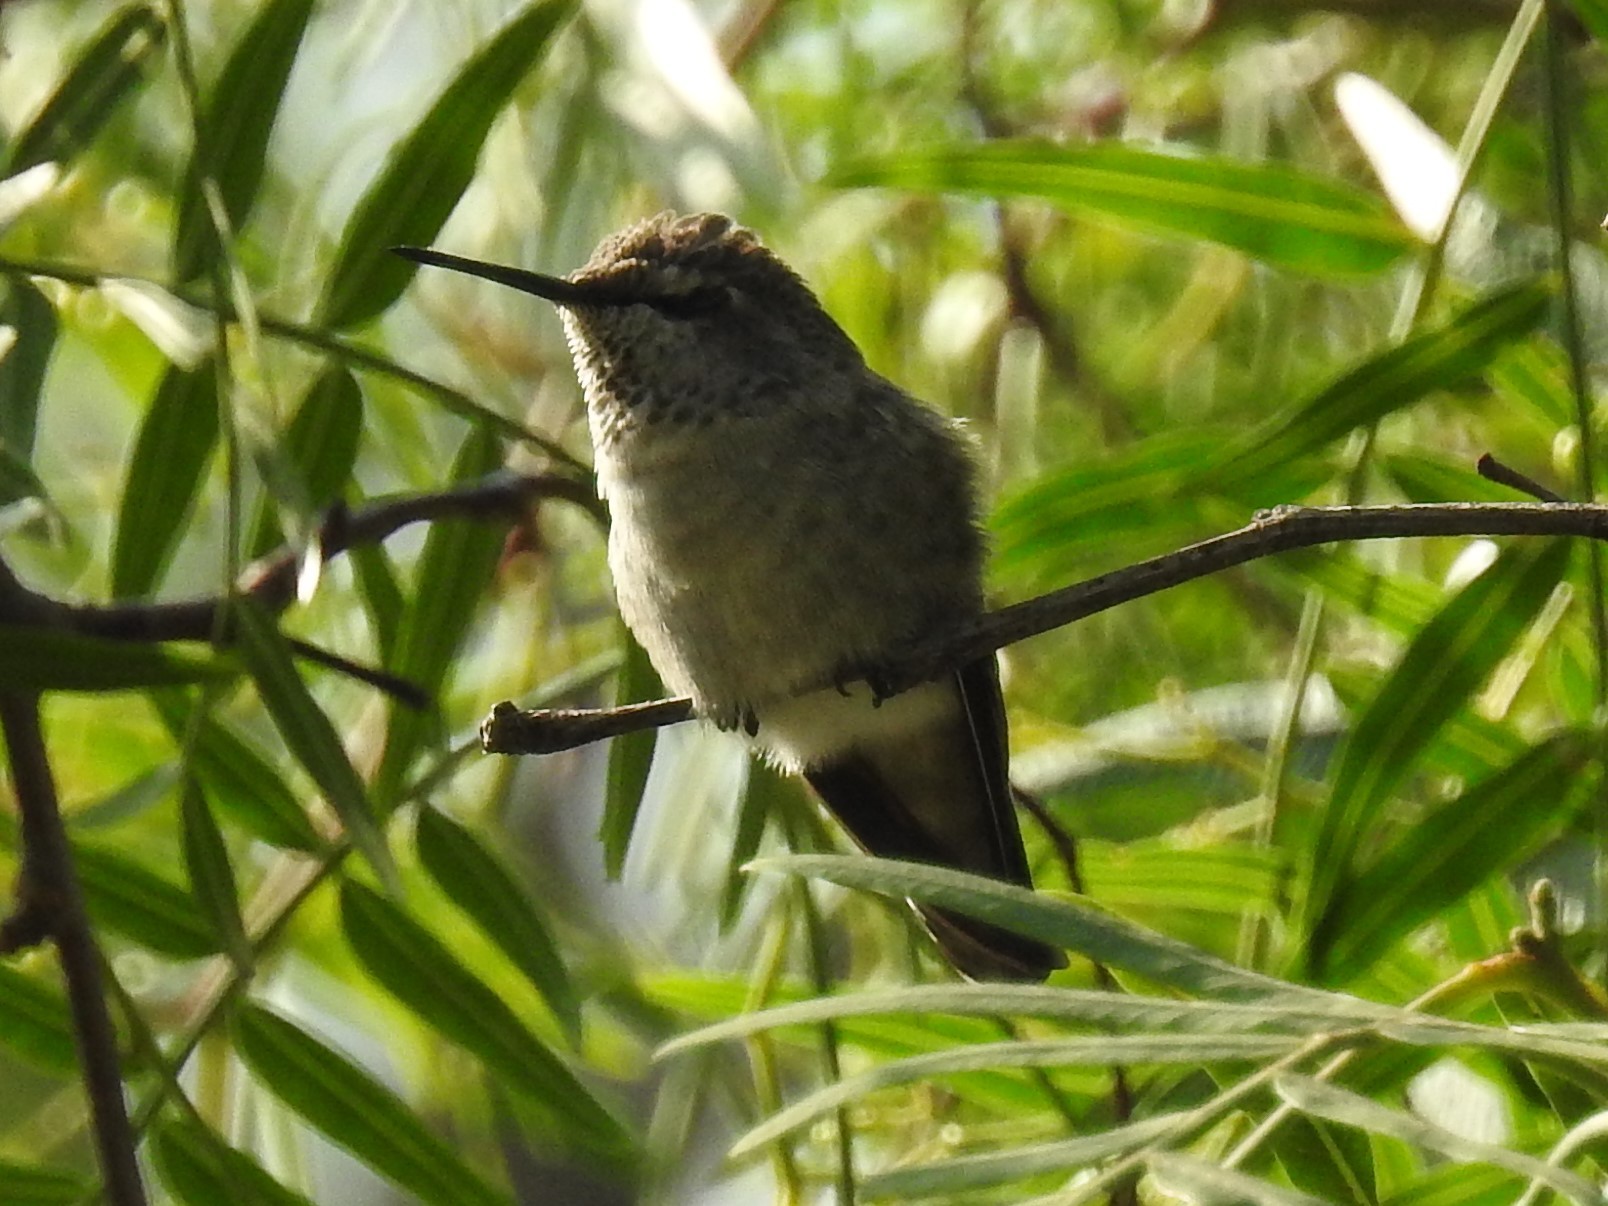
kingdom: Animalia
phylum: Chordata
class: Aves
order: Apodiformes
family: Trochilidae
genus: Calypte
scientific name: Calypte anna
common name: Anna's hummingbird
